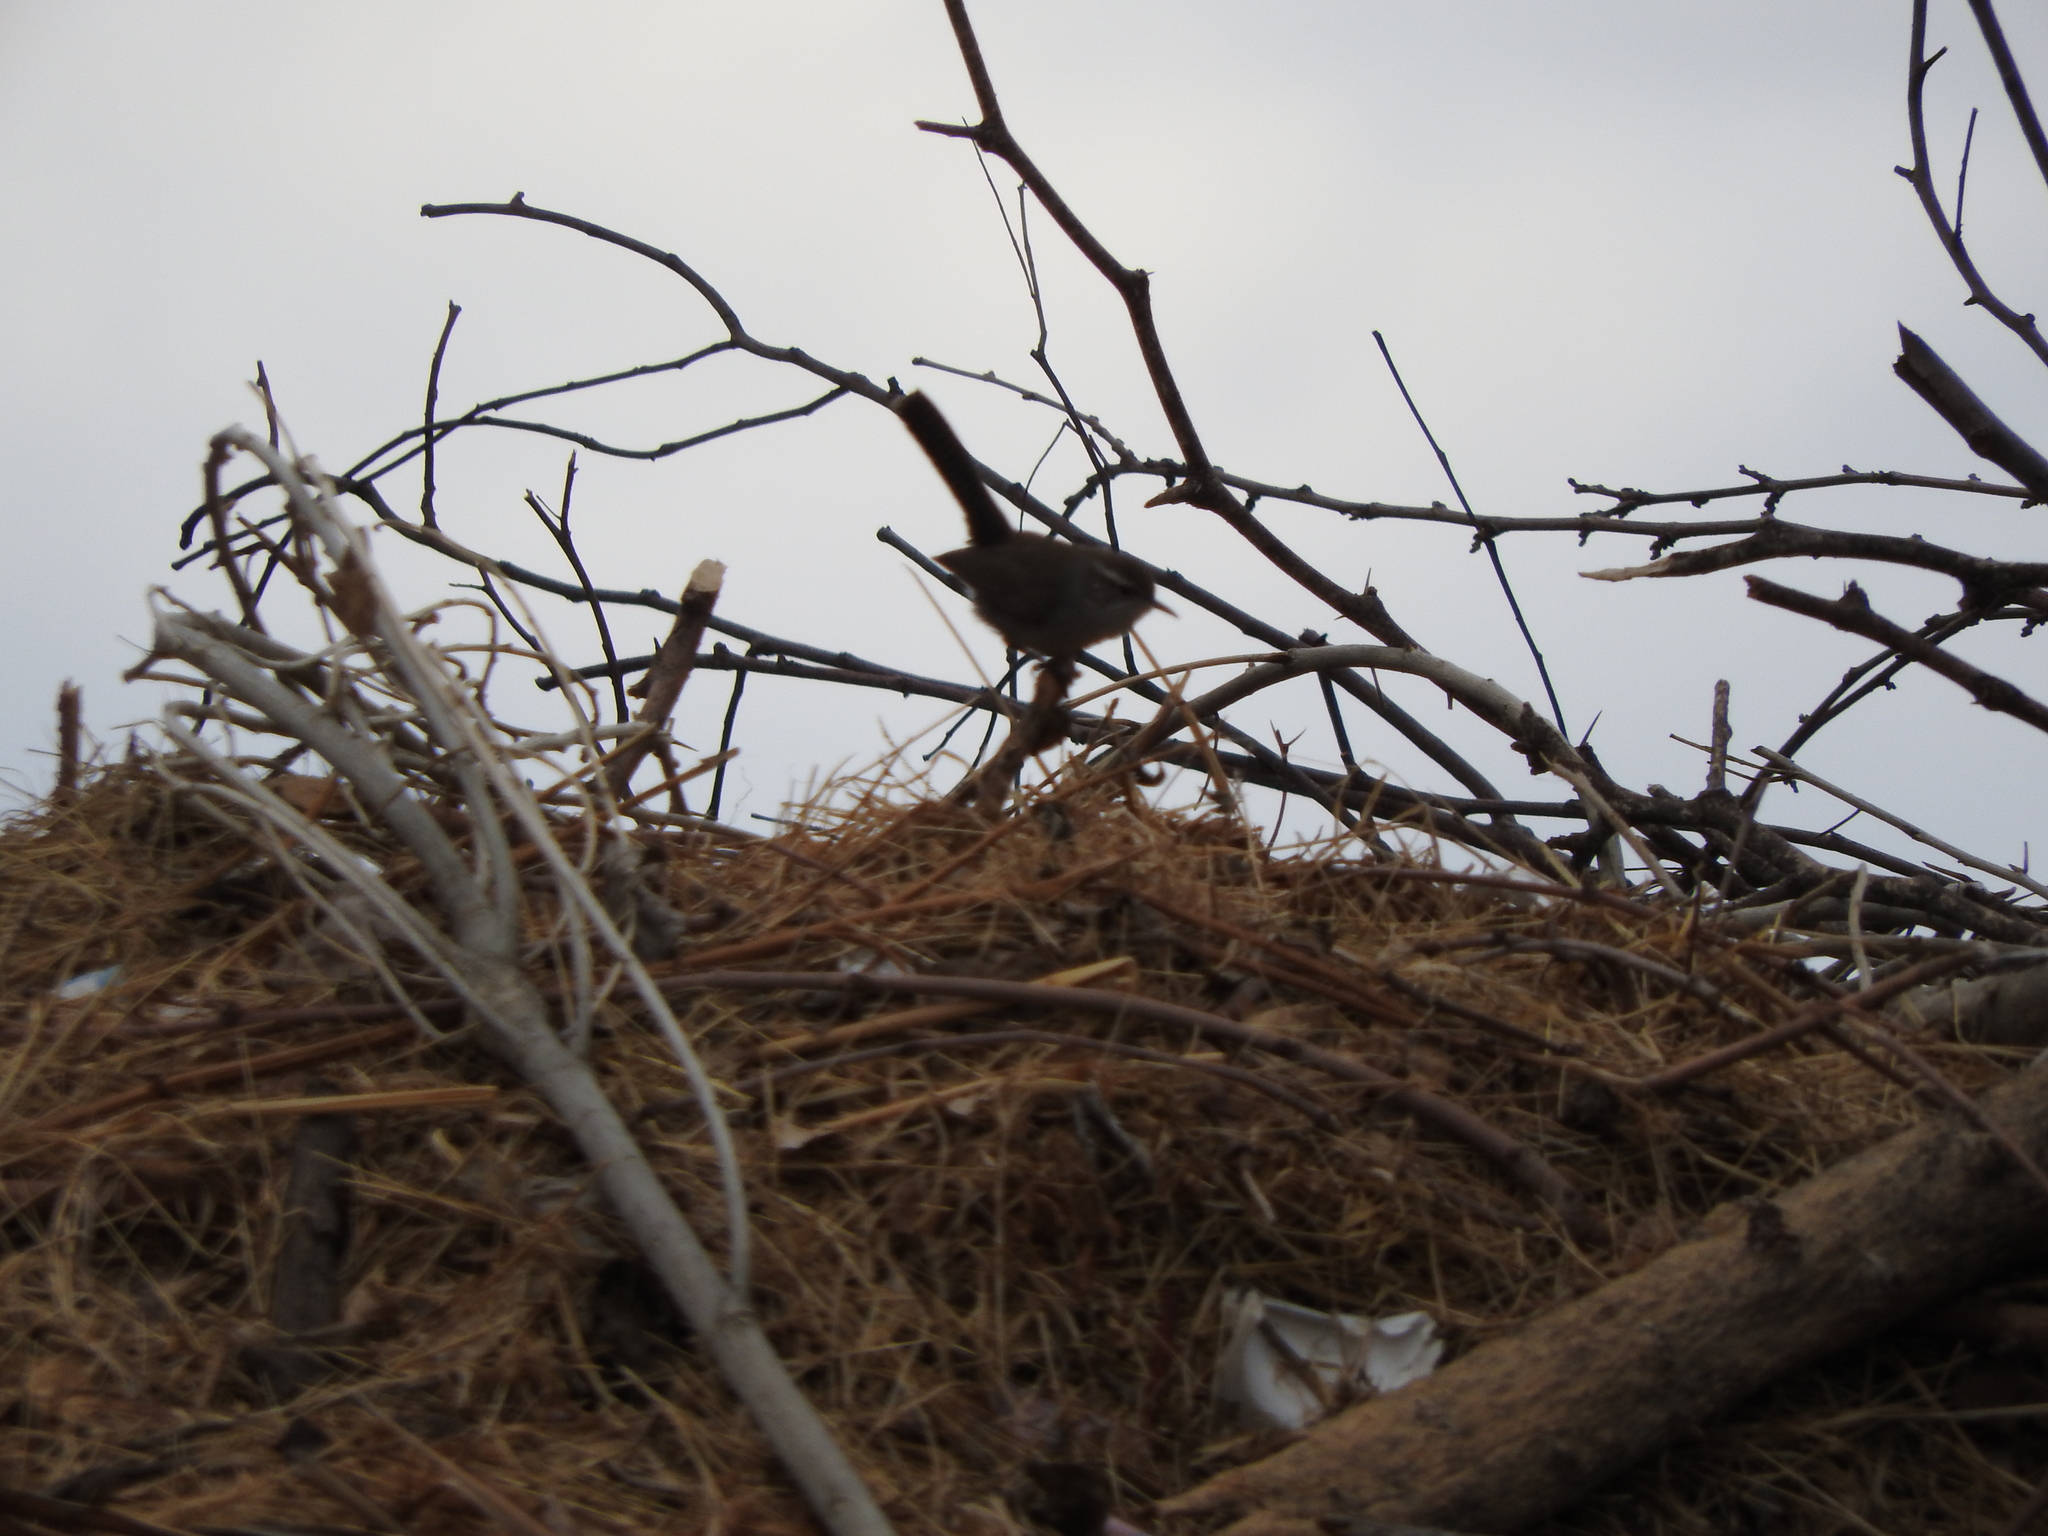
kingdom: Animalia
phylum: Chordata
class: Aves
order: Passeriformes
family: Troglodytidae
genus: Thryomanes
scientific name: Thryomanes bewickii
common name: Bewick's wren
